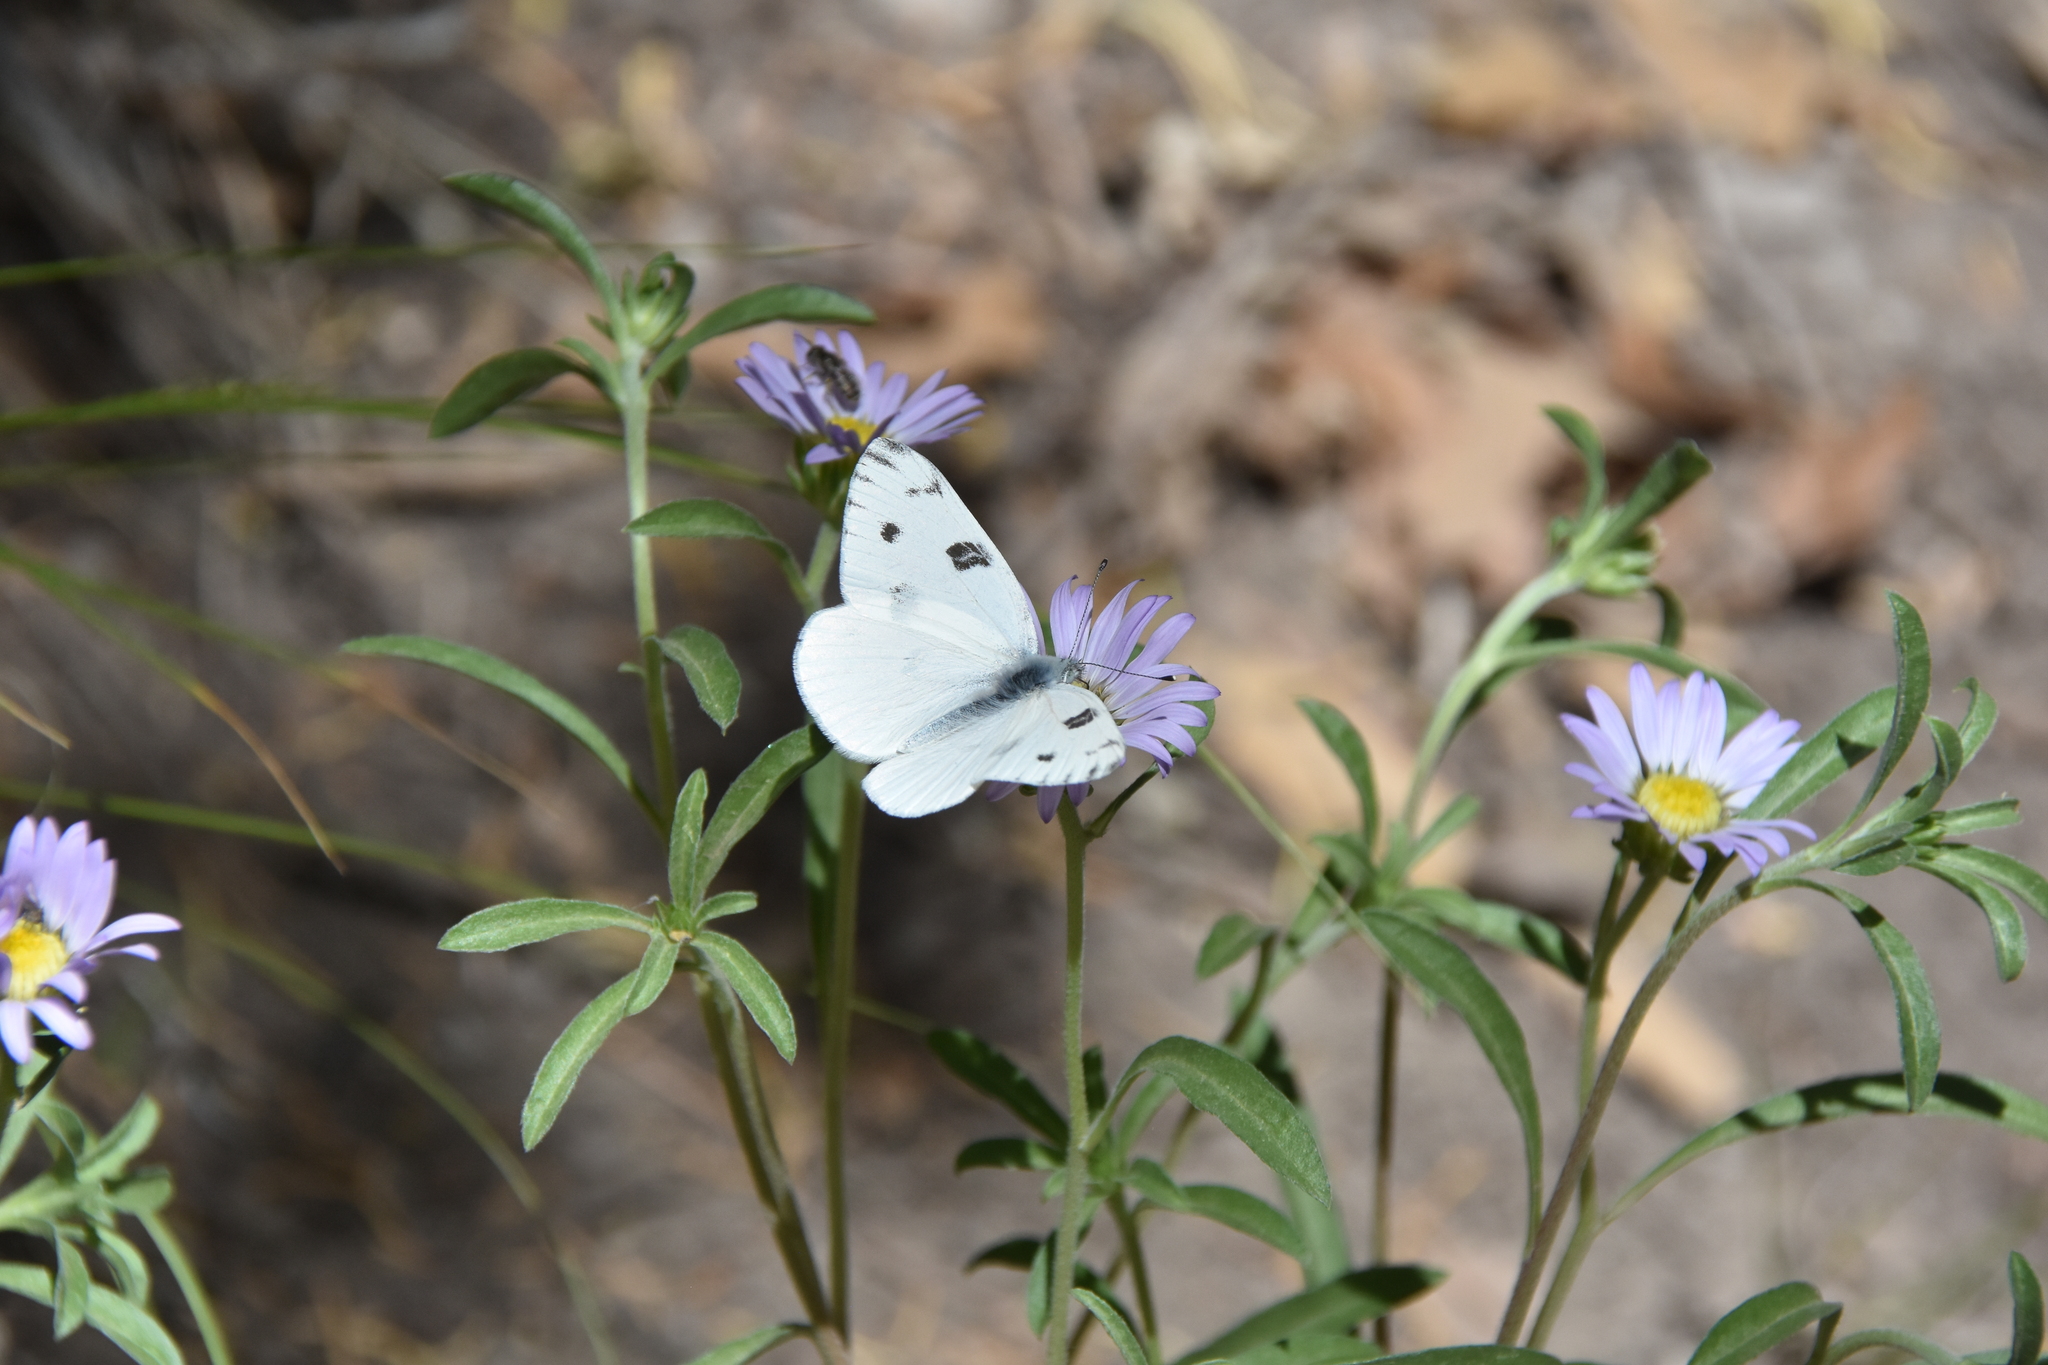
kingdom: Animalia
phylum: Arthropoda
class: Insecta
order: Lepidoptera
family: Pieridae
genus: Pontia
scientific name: Pontia protodice
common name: Checkered white
